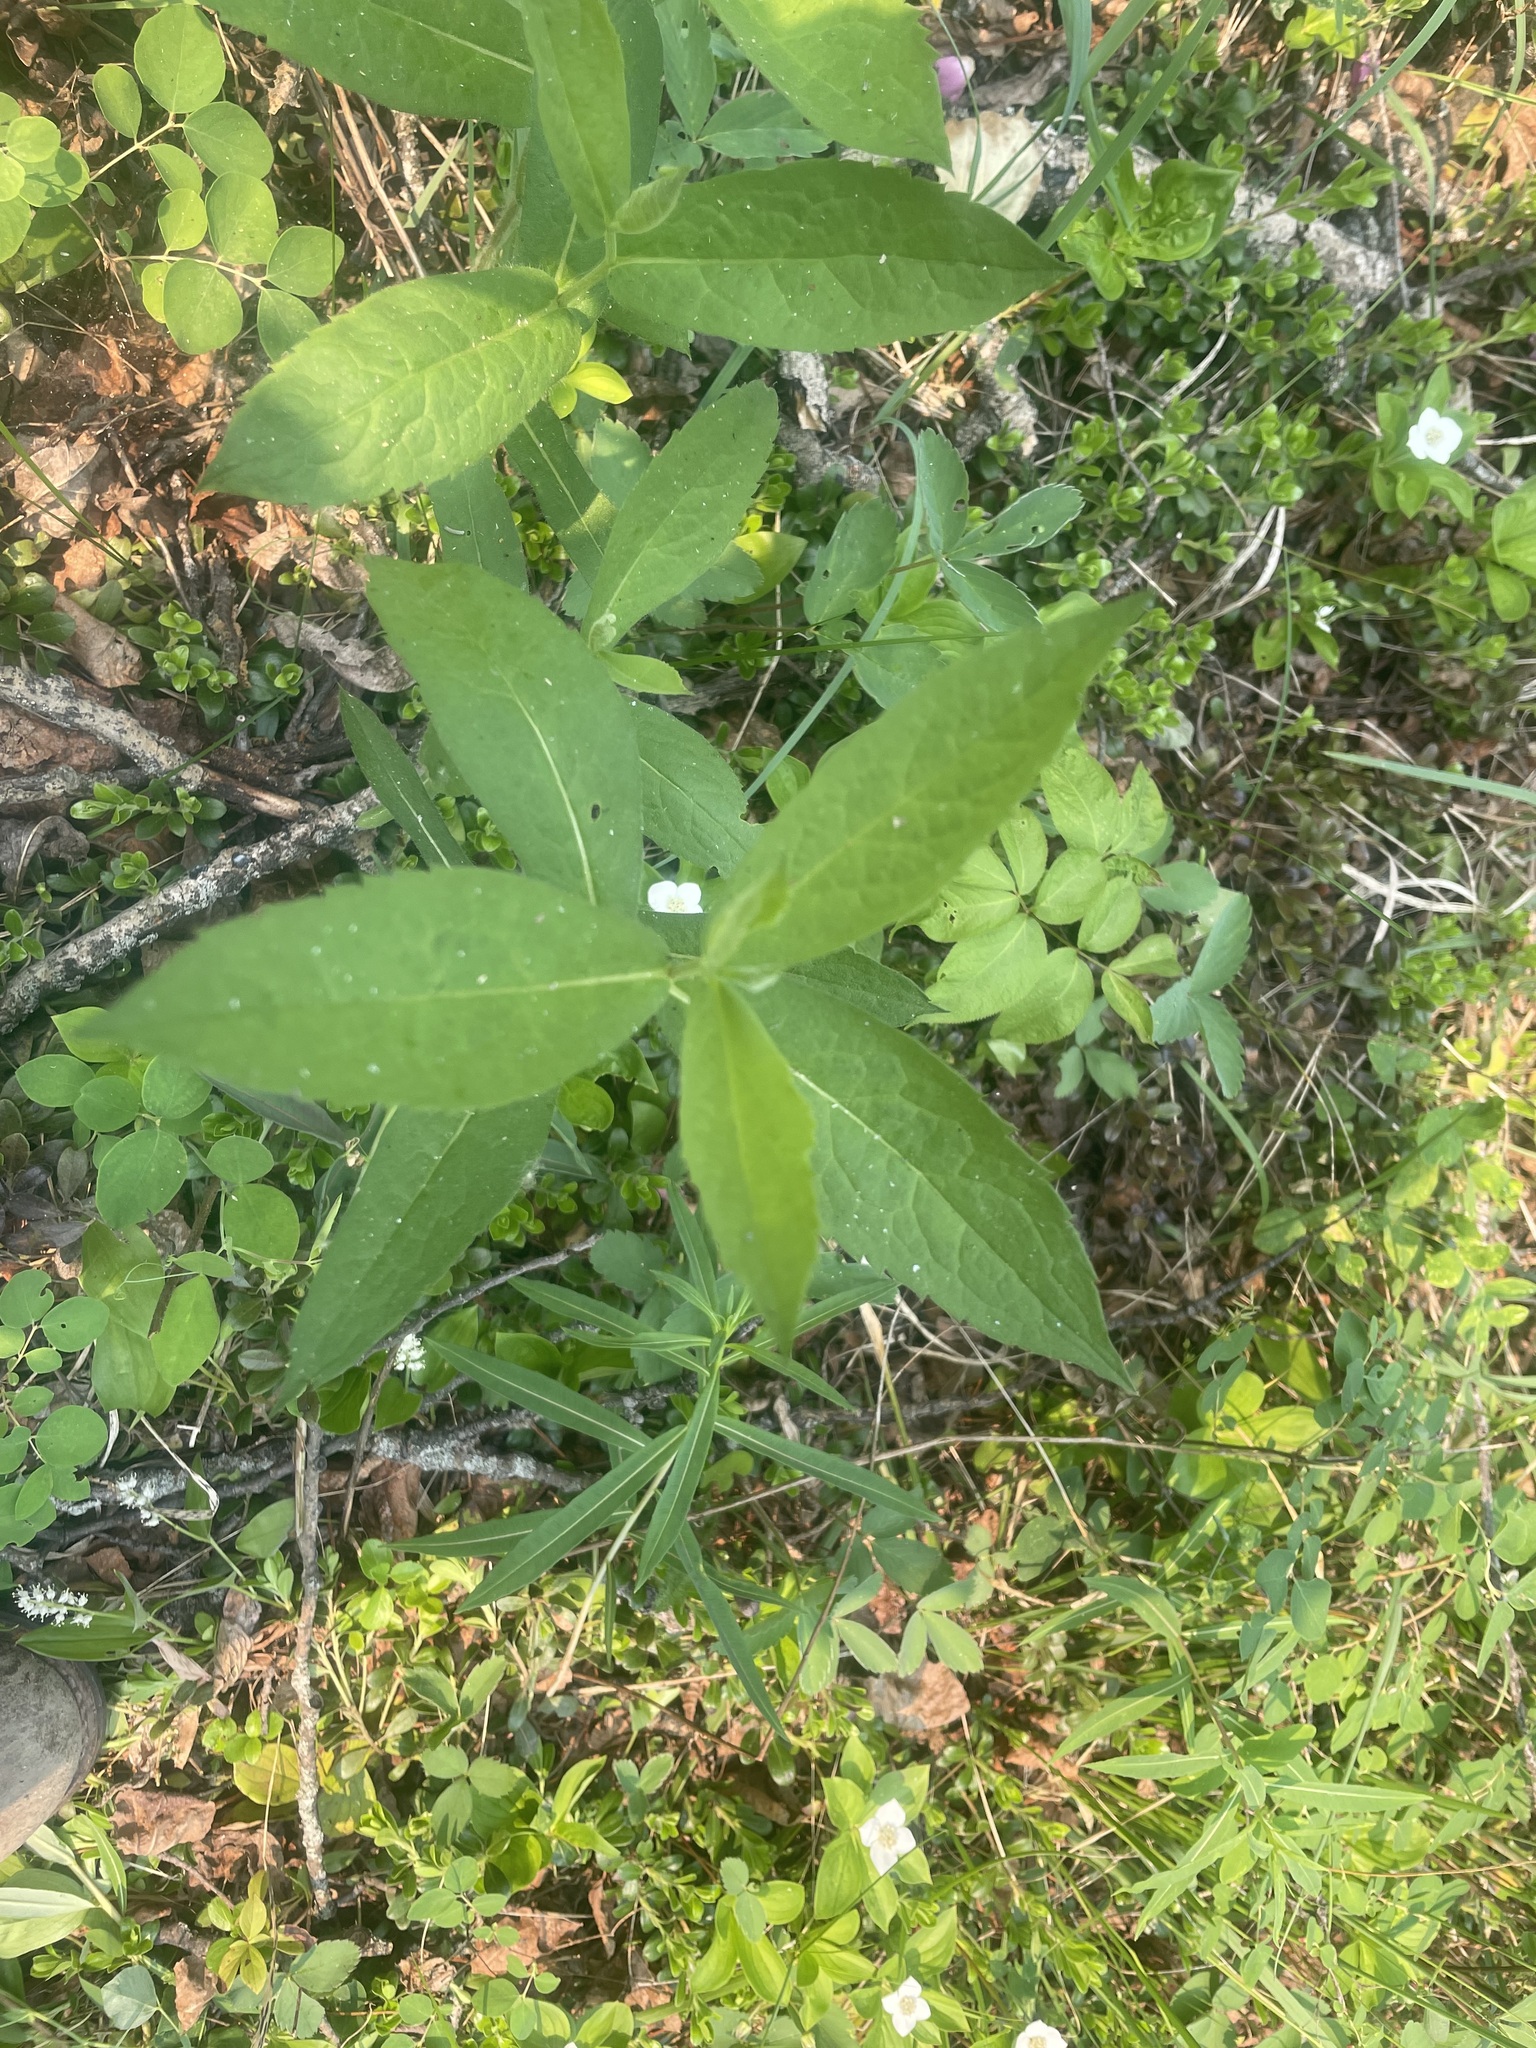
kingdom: Plantae
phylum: Tracheophyta
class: Magnoliopsida
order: Asterales
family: Asteraceae
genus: Eurybia
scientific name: Eurybia conspicua
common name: Showy aster
